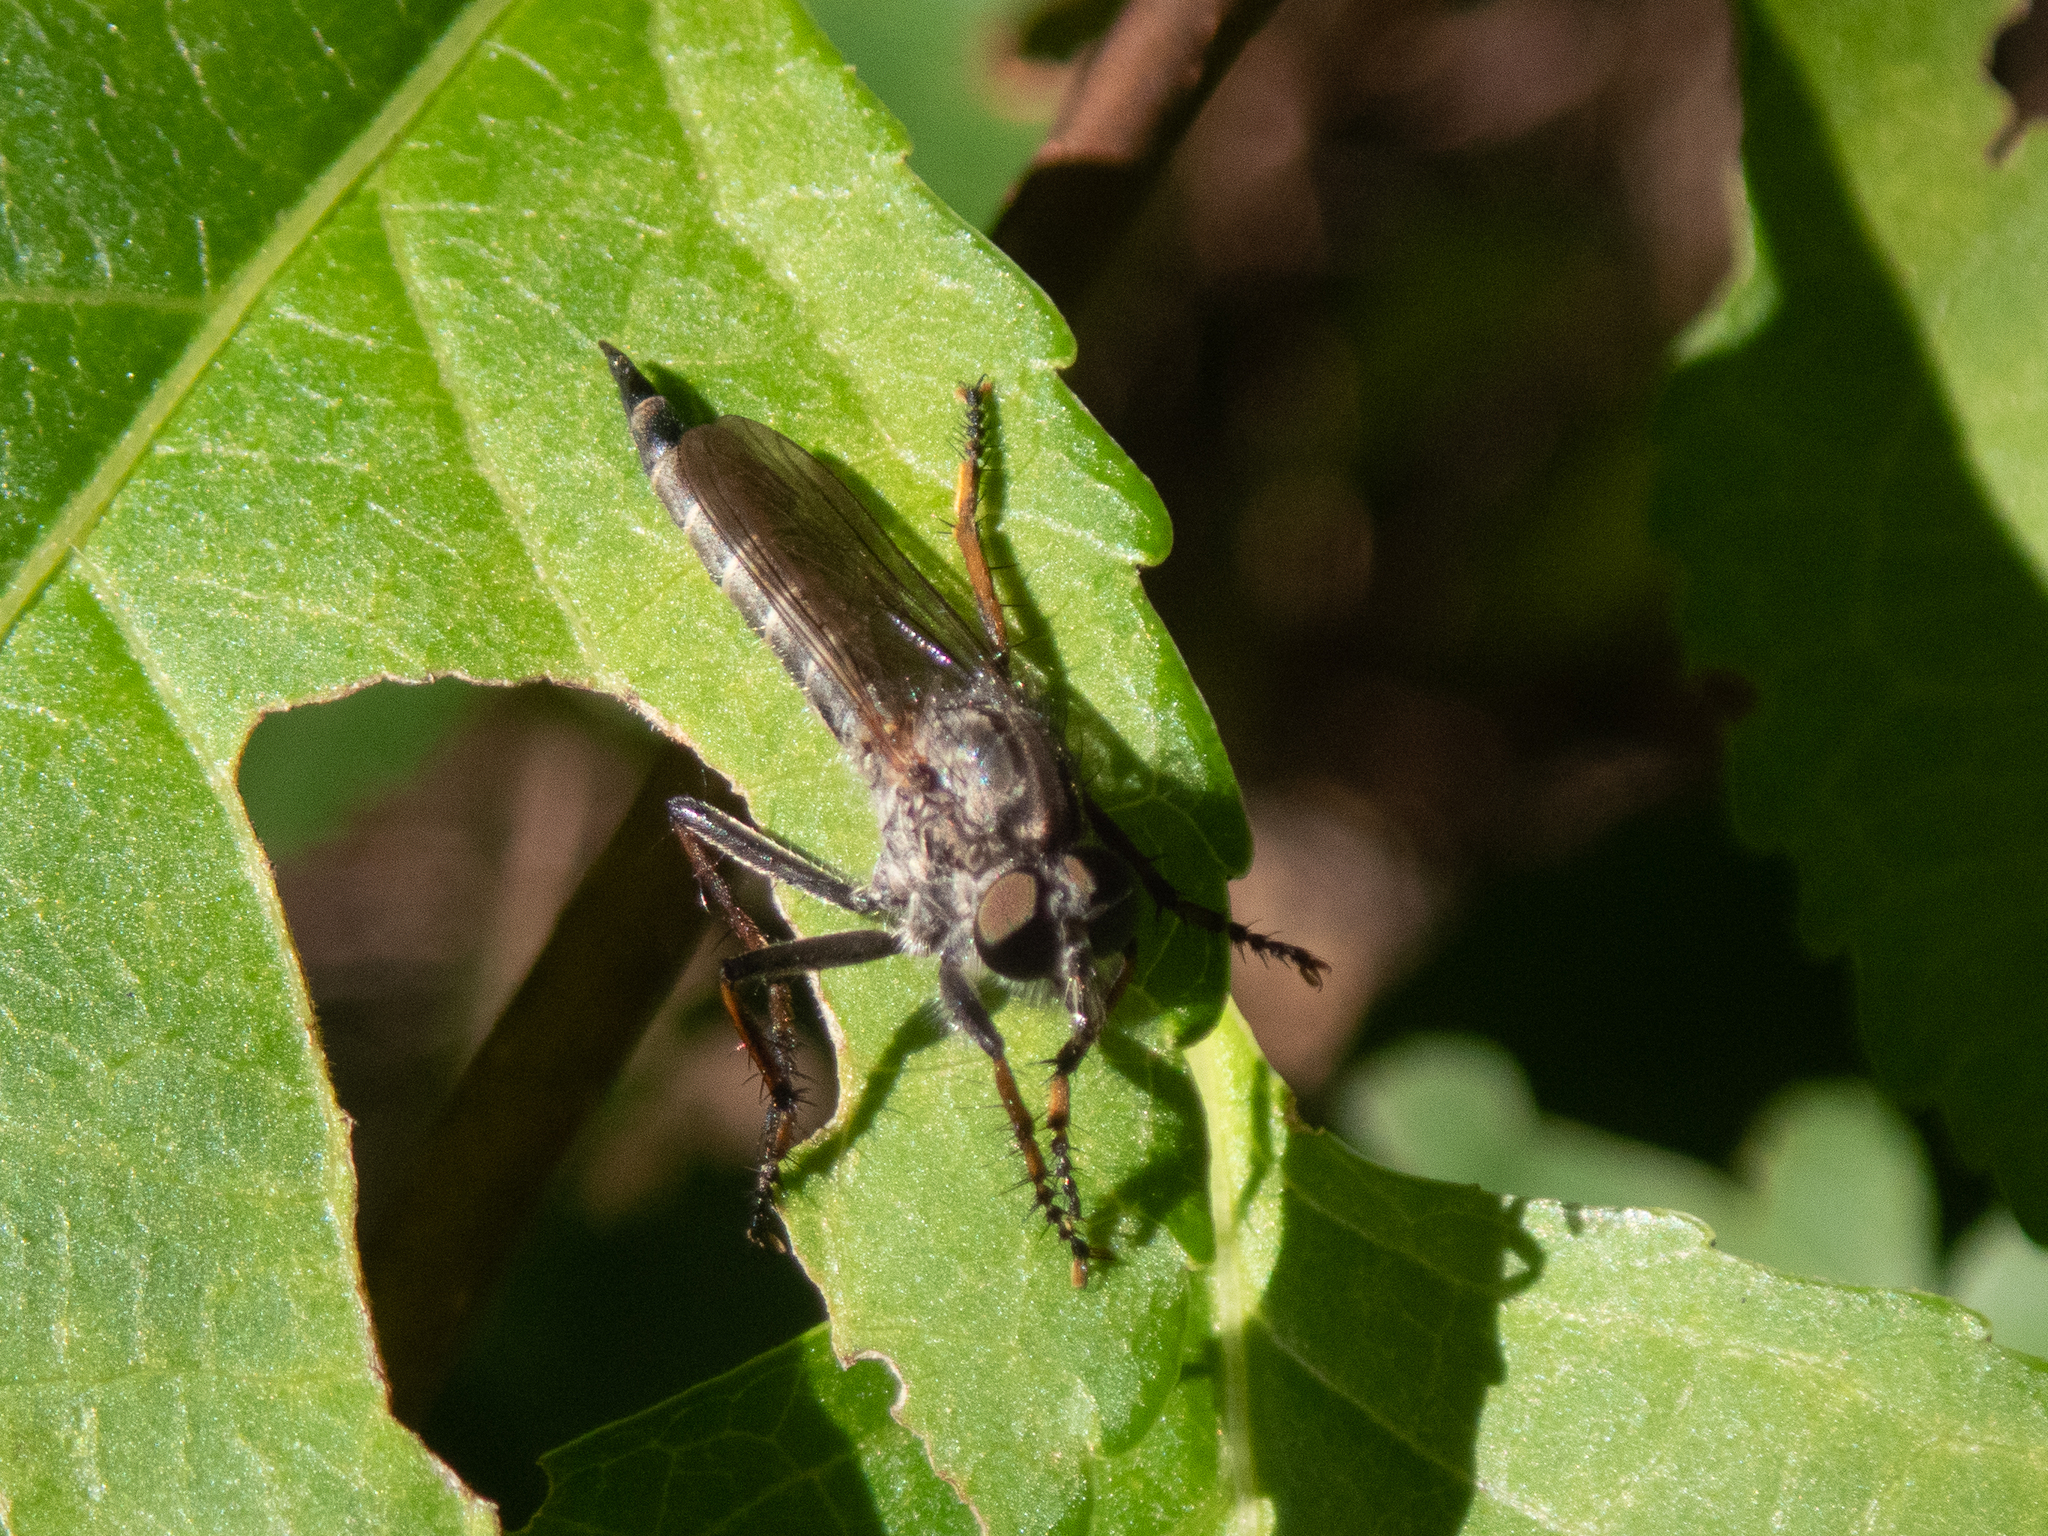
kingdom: Animalia
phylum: Arthropoda
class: Insecta
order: Diptera
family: Asilidae
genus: Machimus
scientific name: Machimus sadyates
